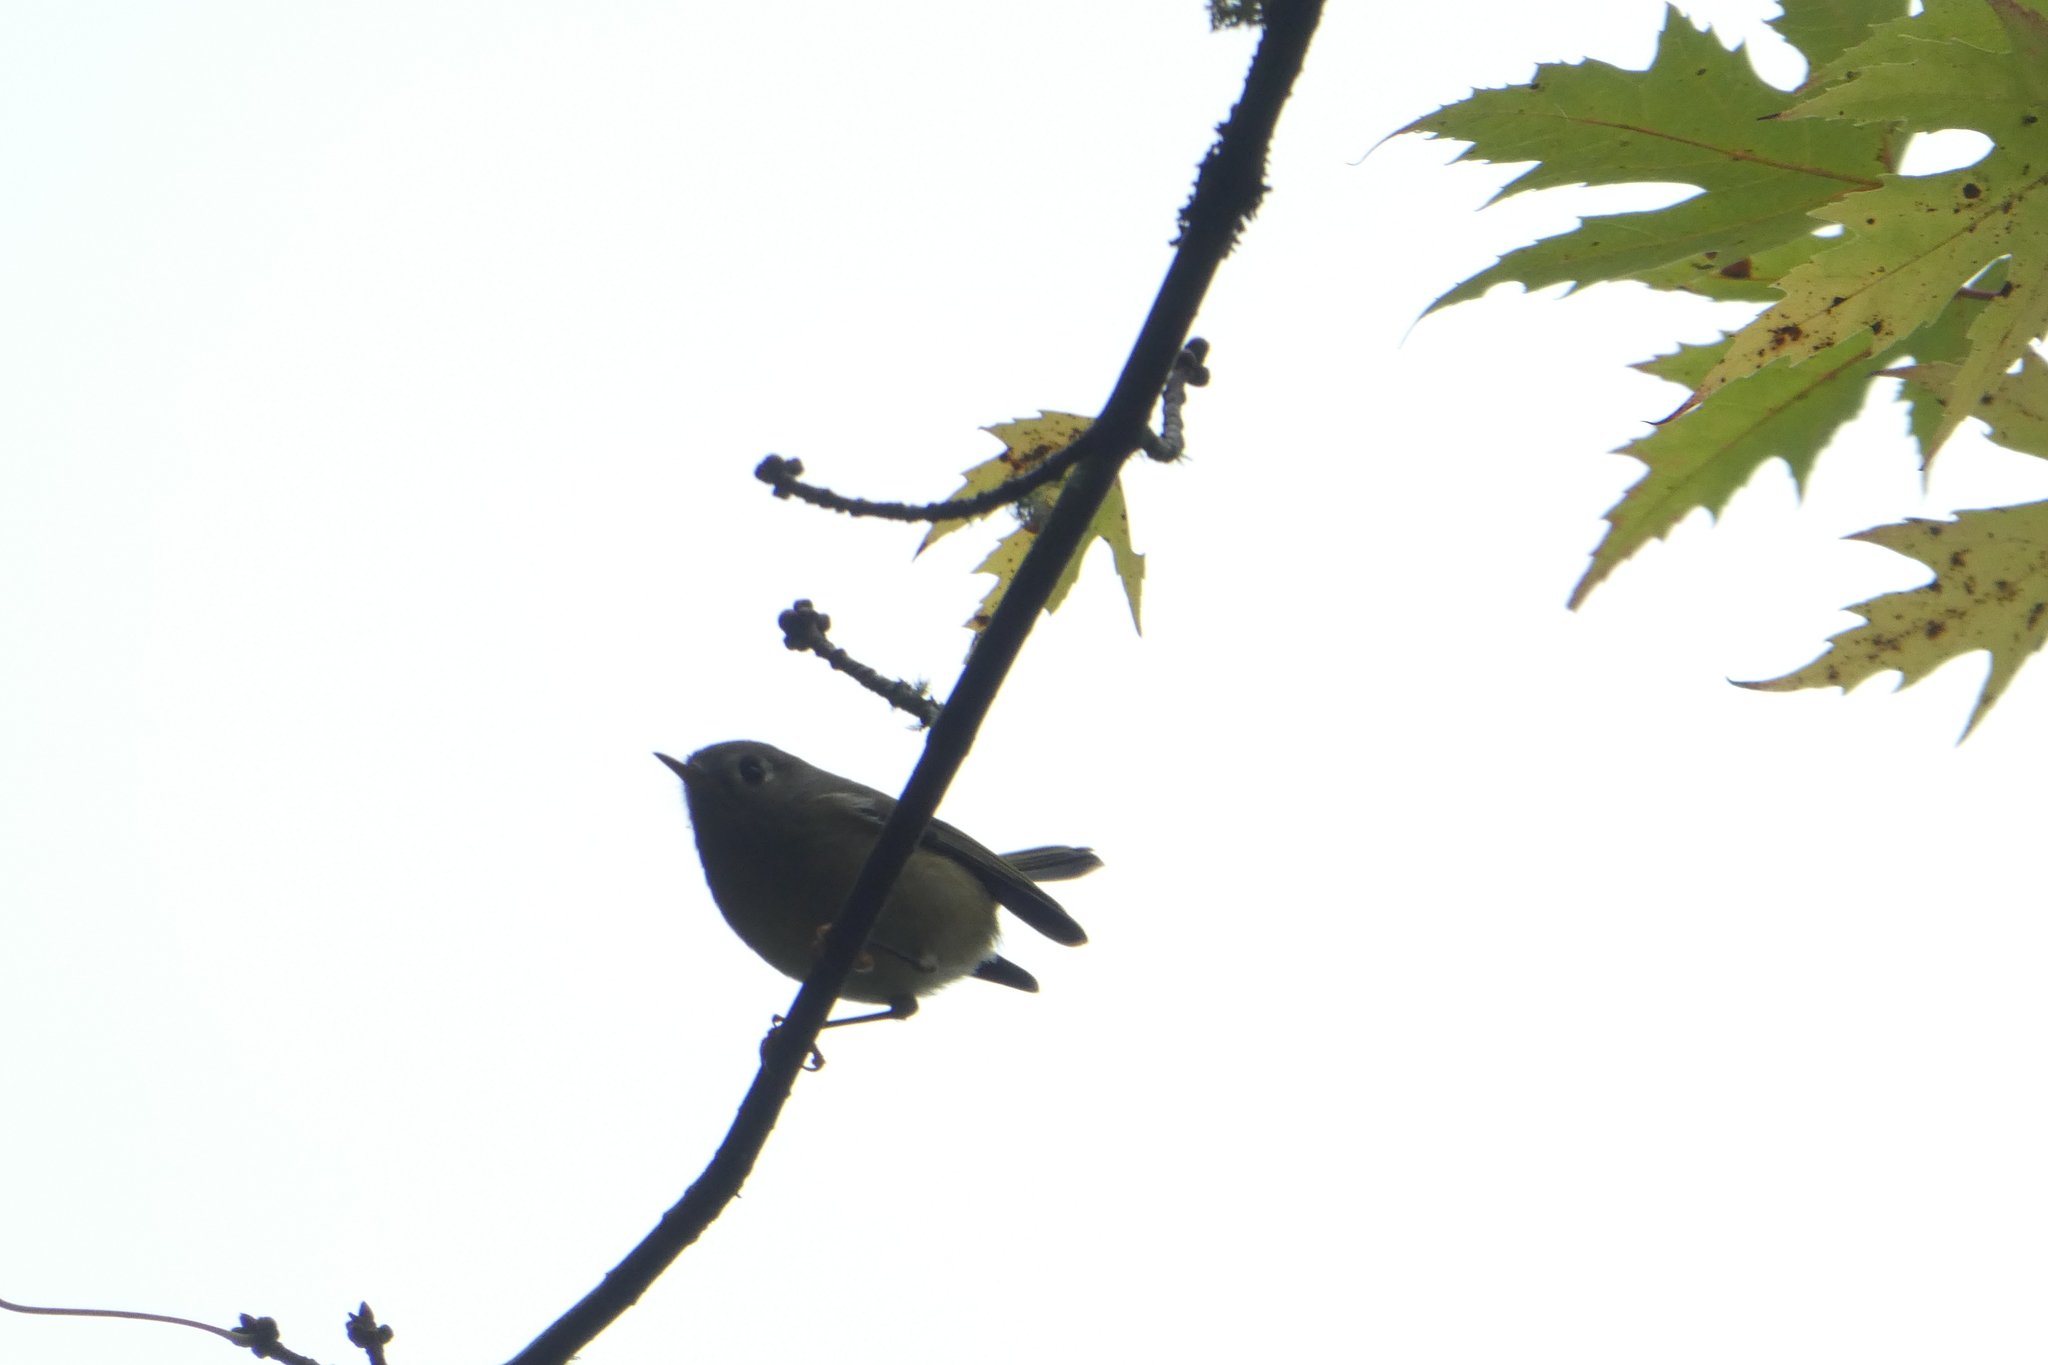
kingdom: Animalia
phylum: Chordata
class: Aves
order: Passeriformes
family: Regulidae
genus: Regulus
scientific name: Regulus calendula
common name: Ruby-crowned kinglet
